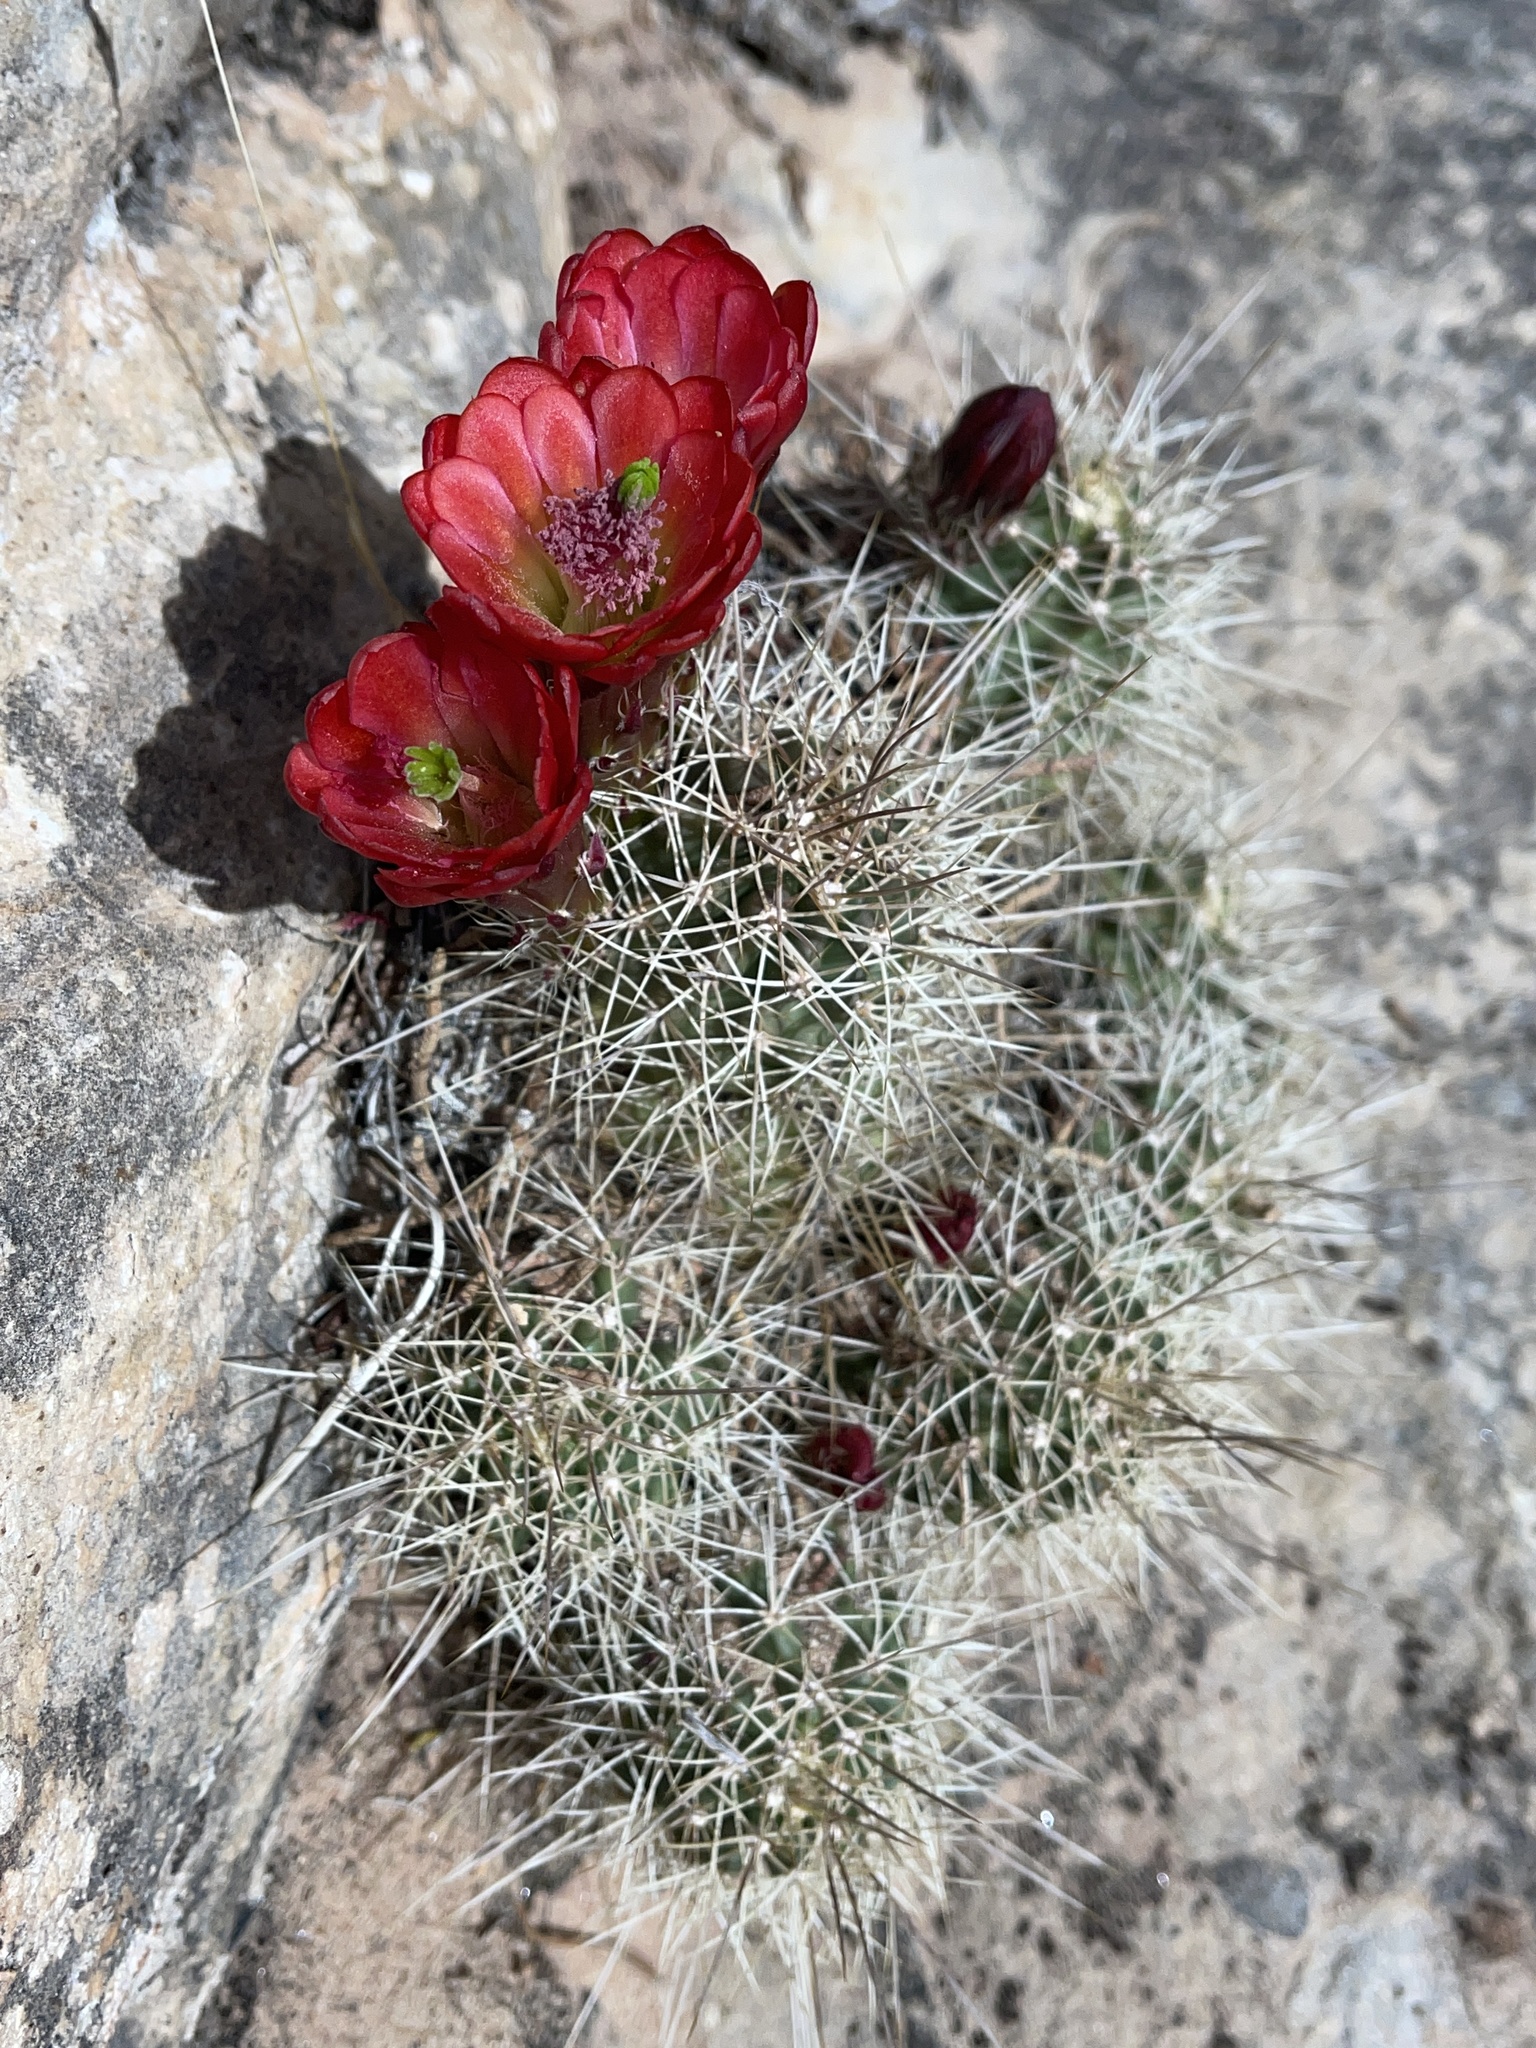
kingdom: Plantae
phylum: Tracheophyta
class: Magnoliopsida
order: Caryophyllales
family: Cactaceae
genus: Echinocereus
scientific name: Echinocereus triglochidiatus
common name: Claretcup hedgehog
